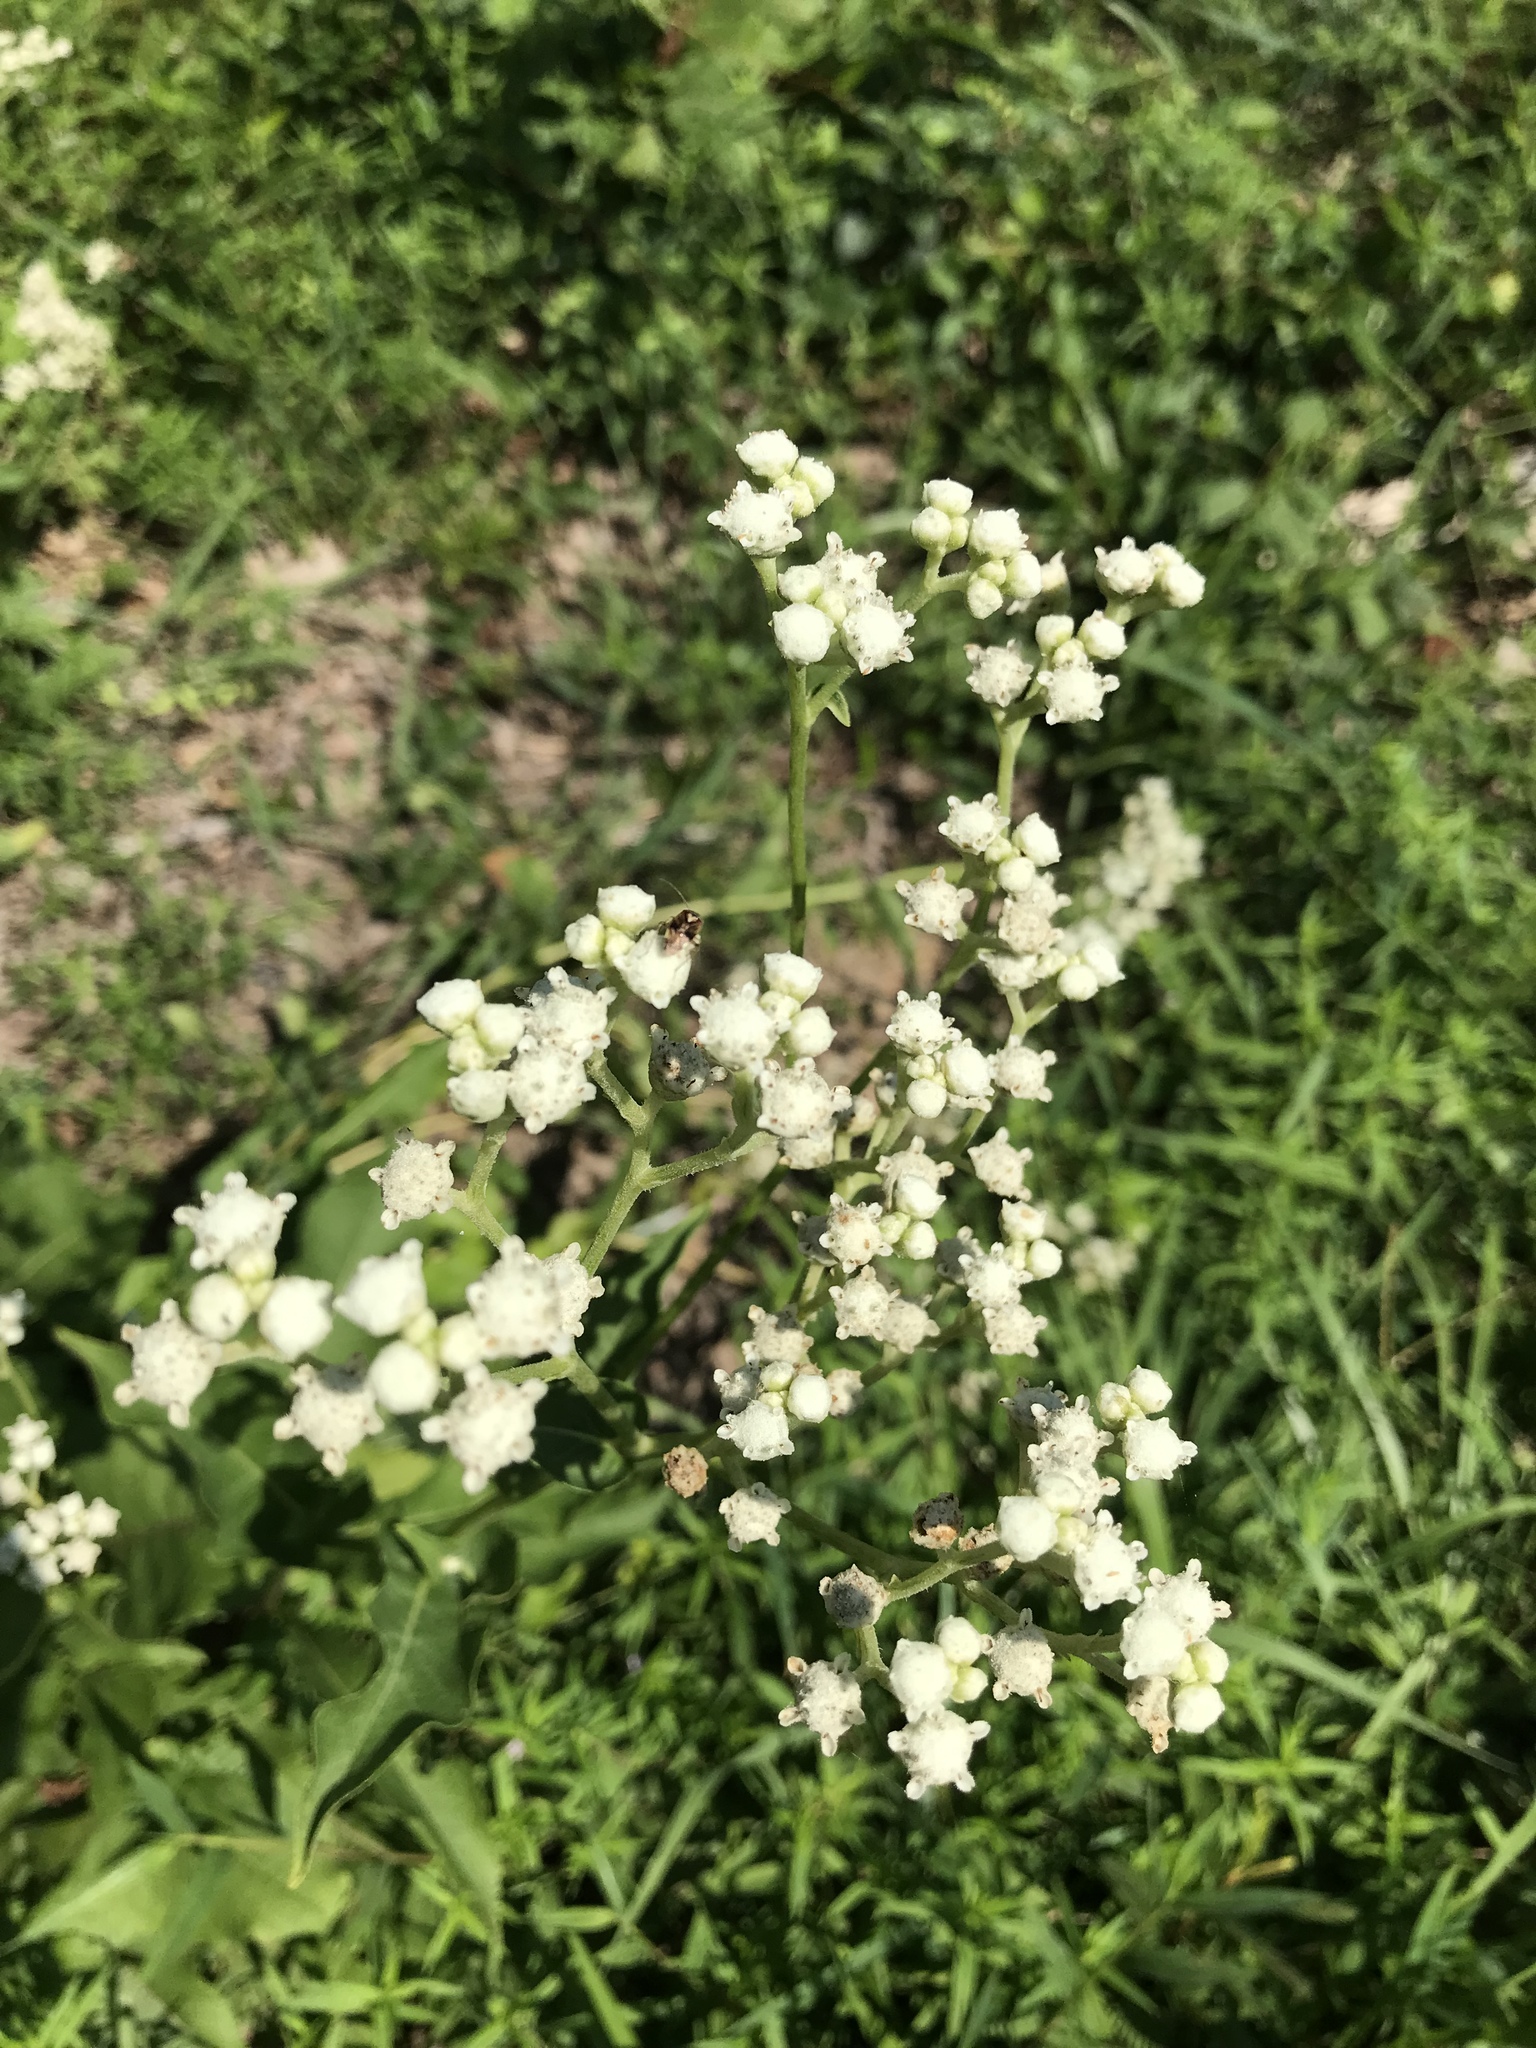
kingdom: Plantae
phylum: Tracheophyta
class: Magnoliopsida
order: Asterales
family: Asteraceae
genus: Parthenium
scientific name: Parthenium integrifolium
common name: American feverfew
